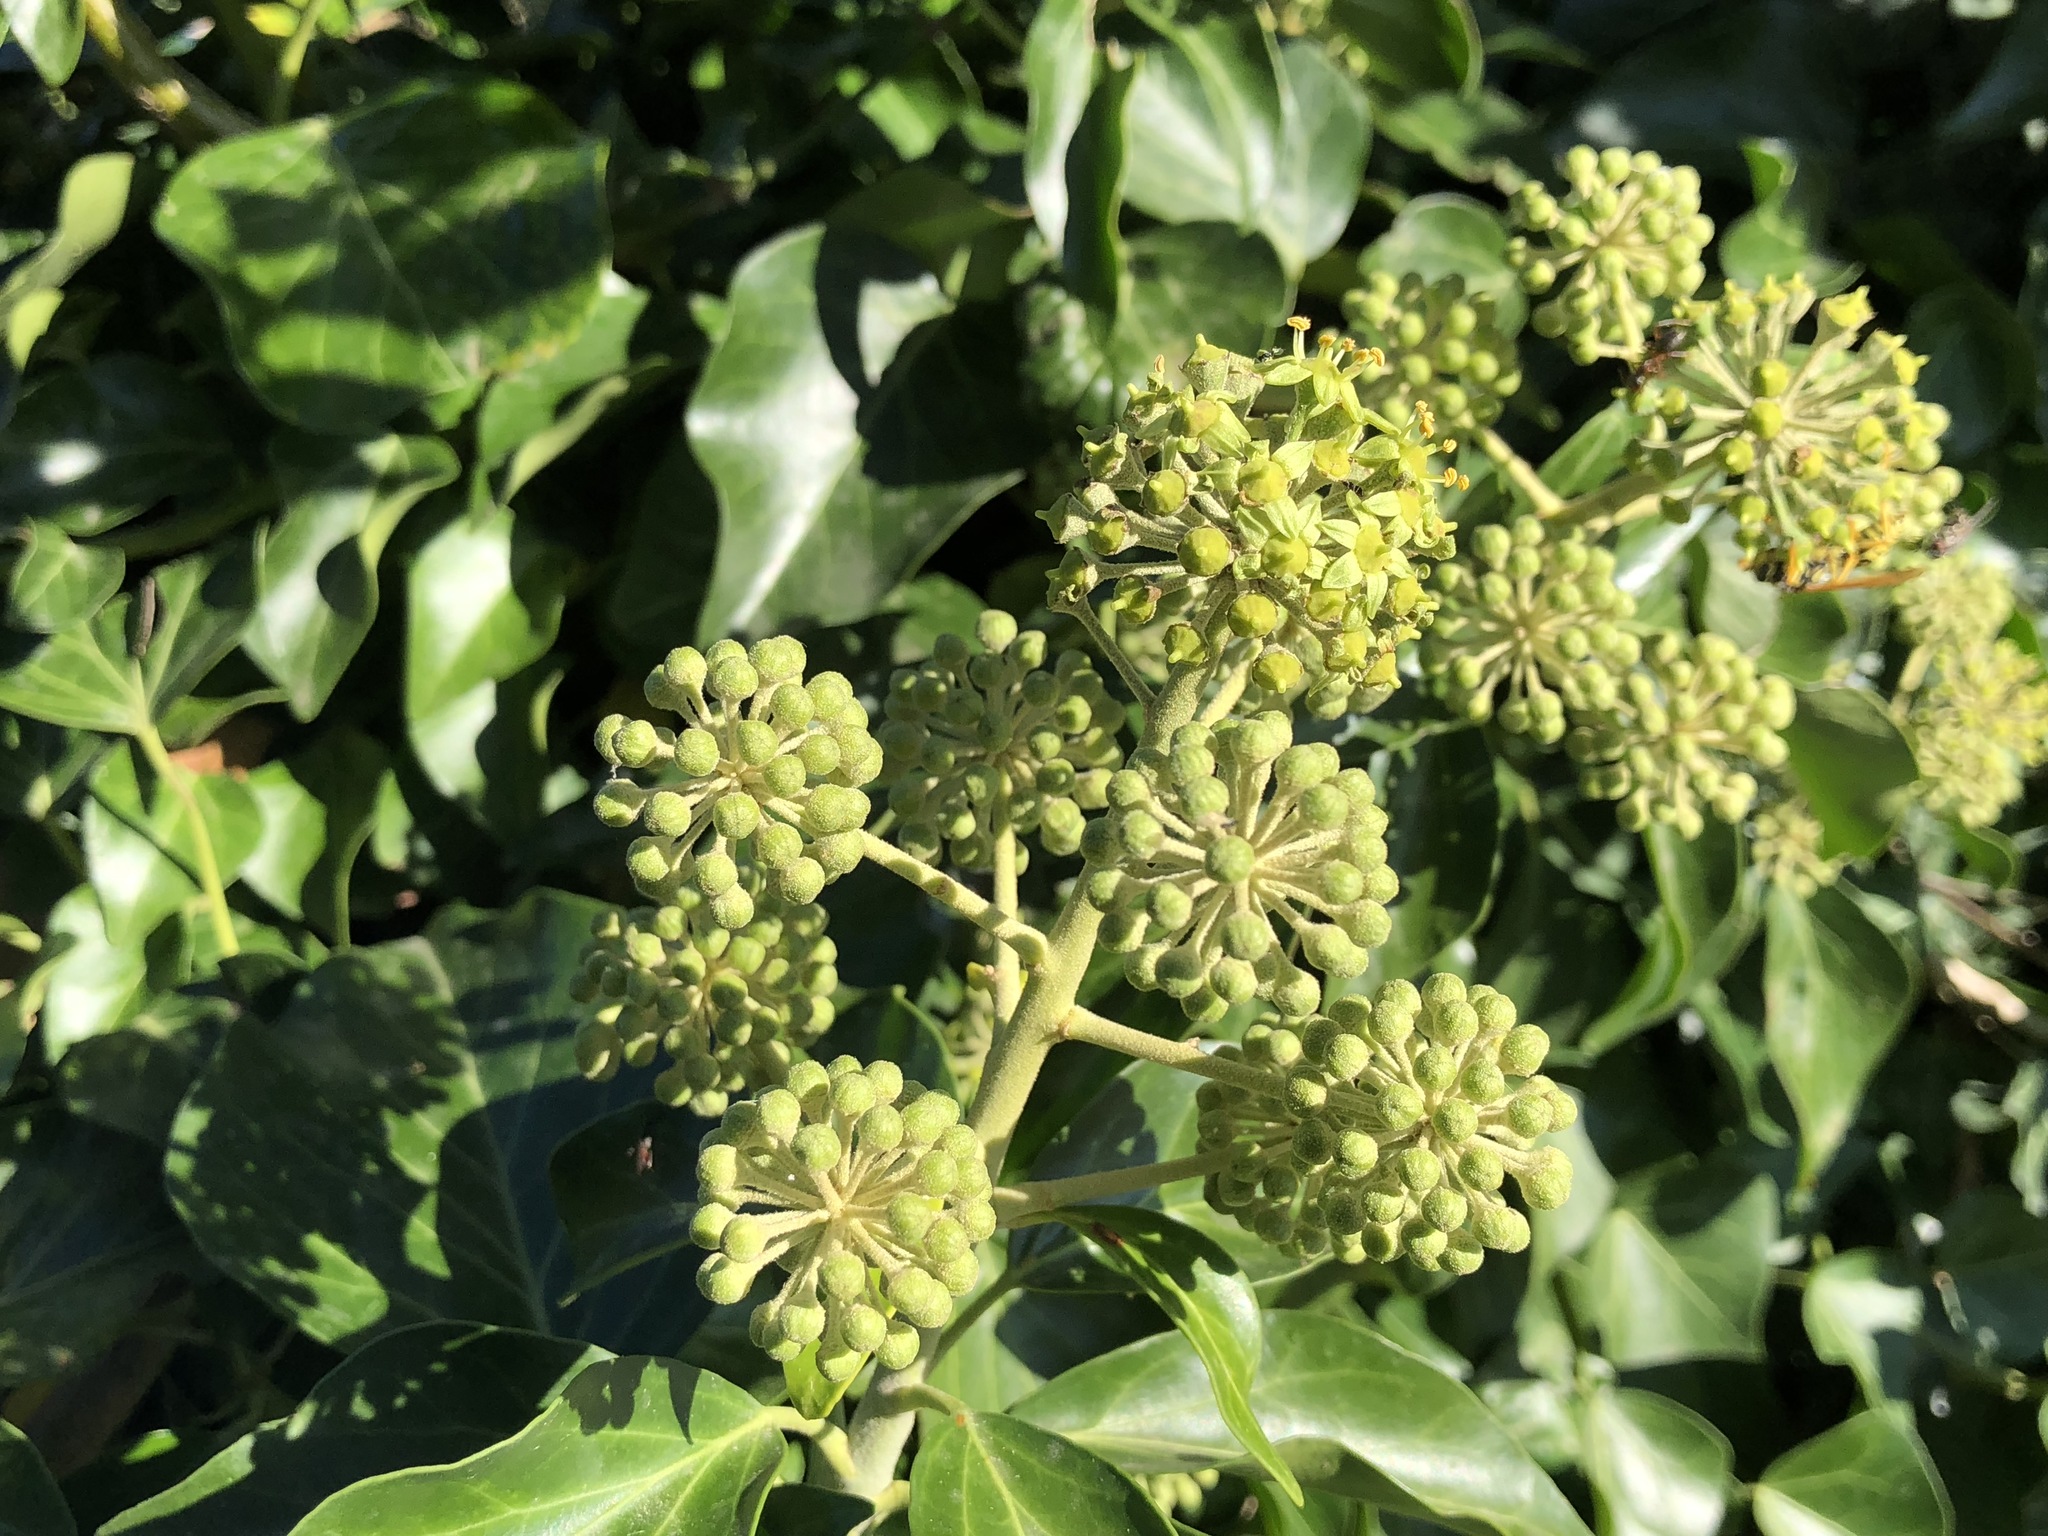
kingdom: Plantae
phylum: Tracheophyta
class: Magnoliopsida
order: Apiales
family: Araliaceae
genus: Hedera
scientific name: Hedera helix
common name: Ivy
